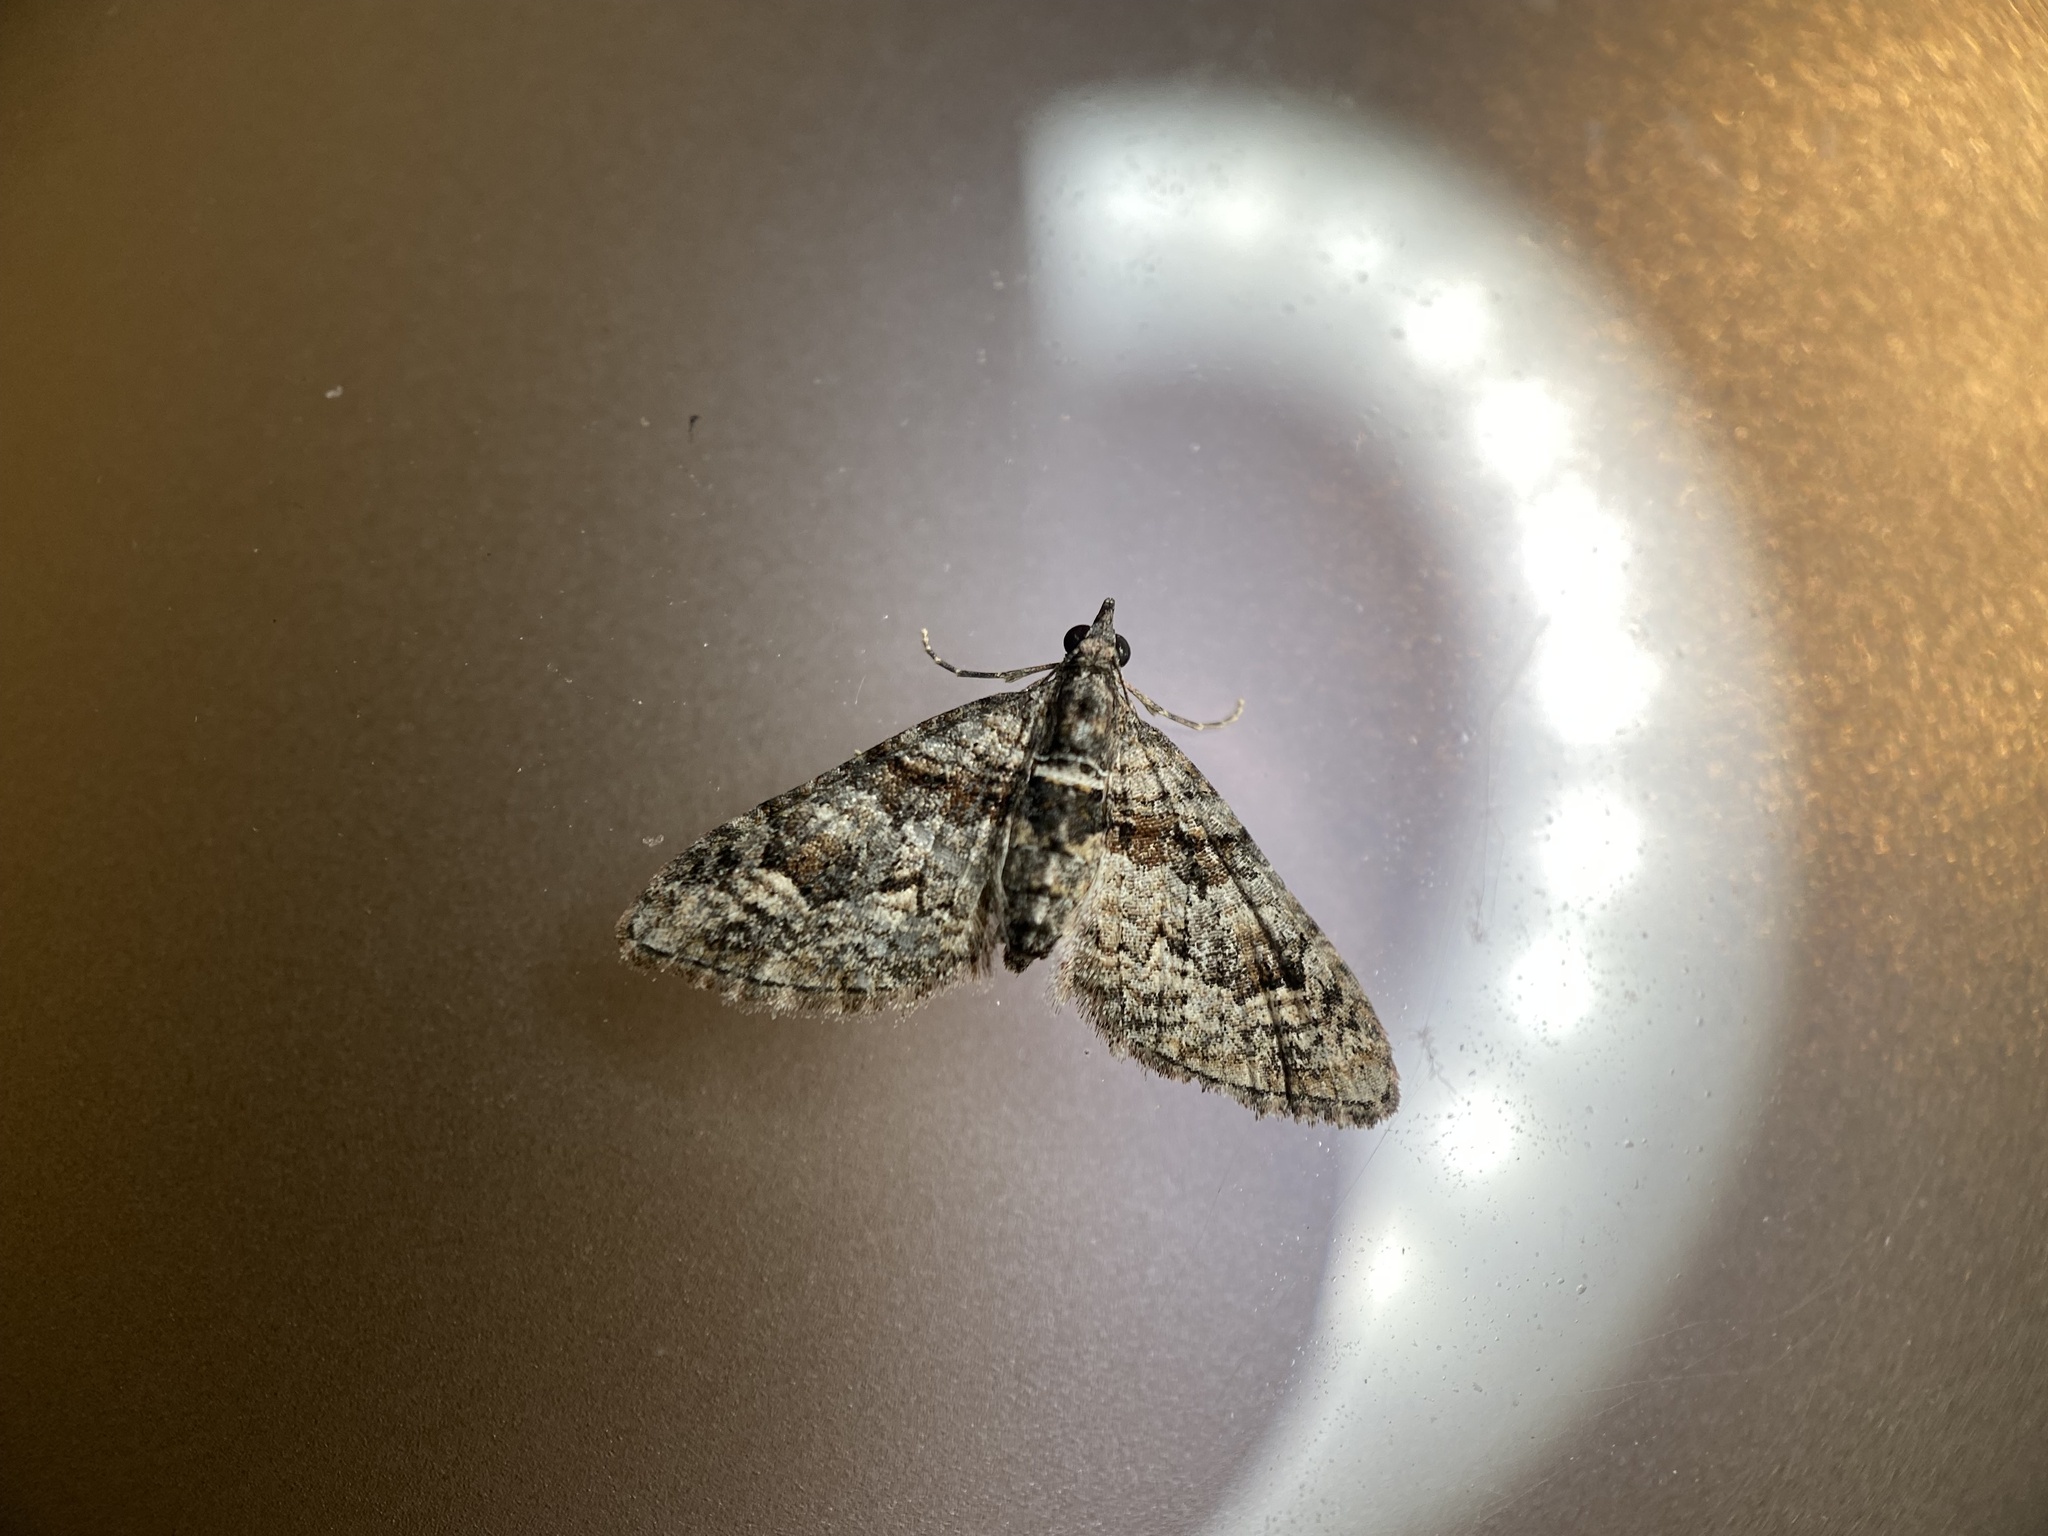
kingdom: Animalia
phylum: Arthropoda
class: Insecta
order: Lepidoptera
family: Geometridae
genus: Phrissogonus
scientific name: Phrissogonus laticostata
